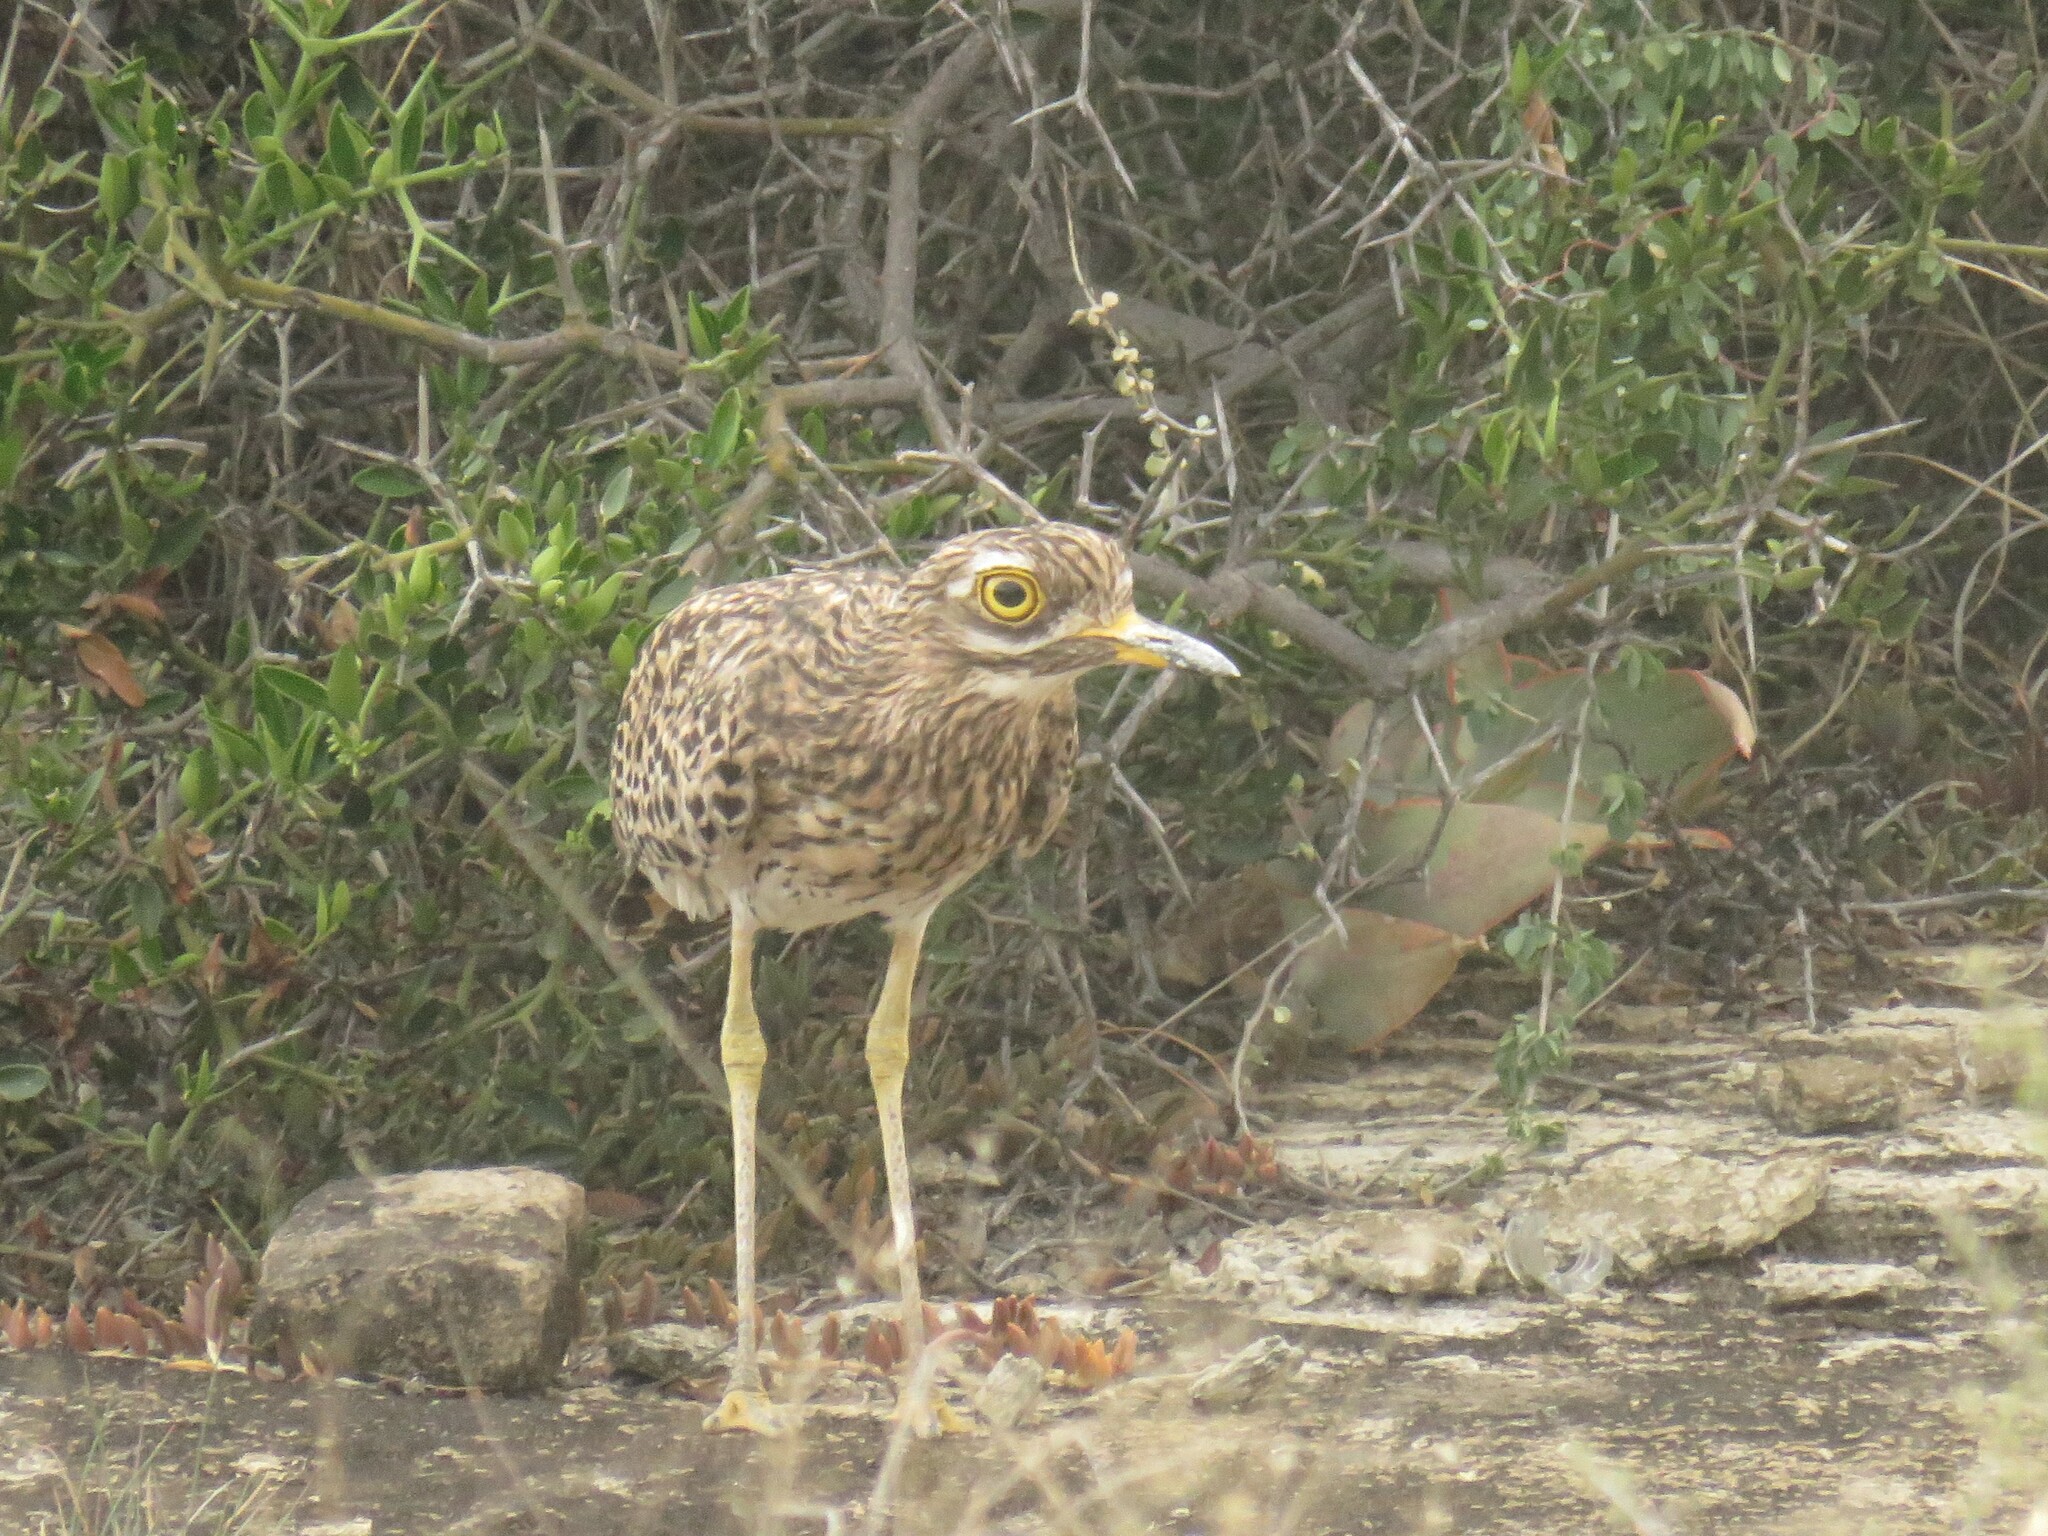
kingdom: Animalia
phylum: Chordata
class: Aves
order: Charadriiformes
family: Burhinidae
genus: Burhinus
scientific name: Burhinus capensis
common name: Spotted thick-knee
